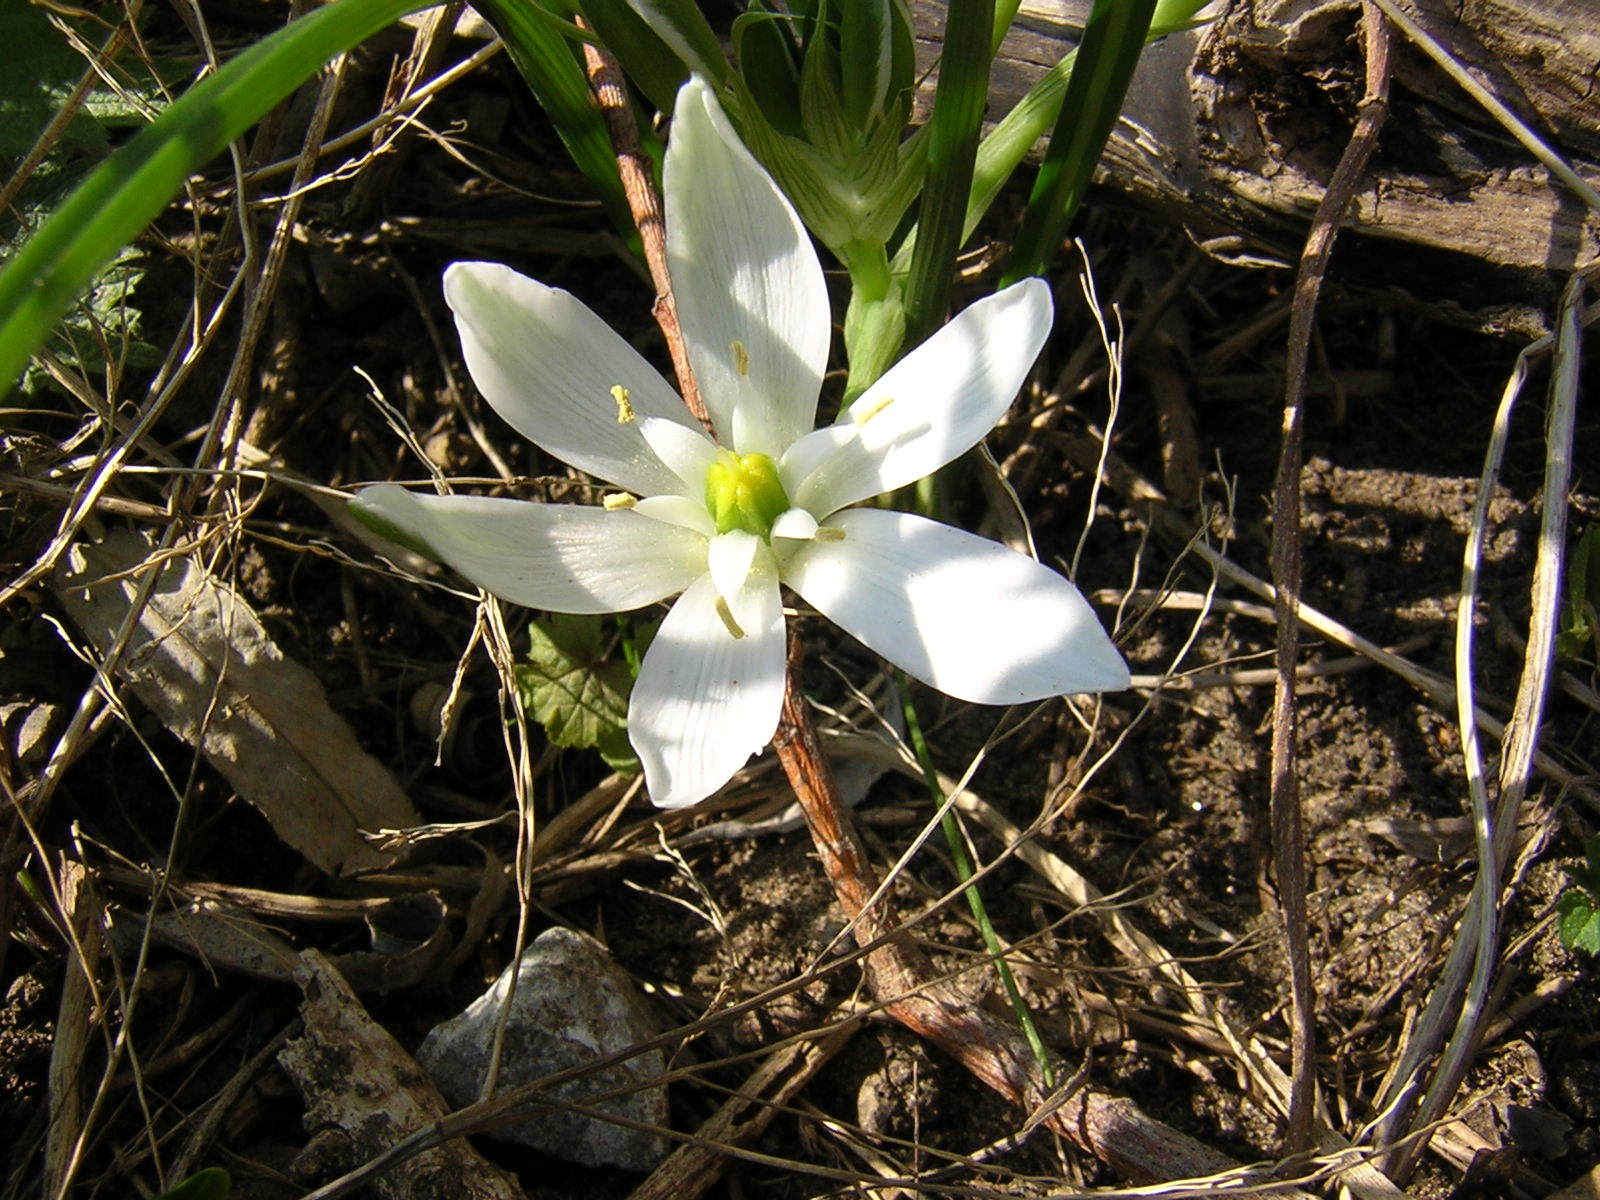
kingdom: Plantae
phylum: Tracheophyta
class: Liliopsida
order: Asparagales
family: Asparagaceae
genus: Ornithogalum
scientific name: Ornithogalum umbellatum
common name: Garden star-of-bethlehem
